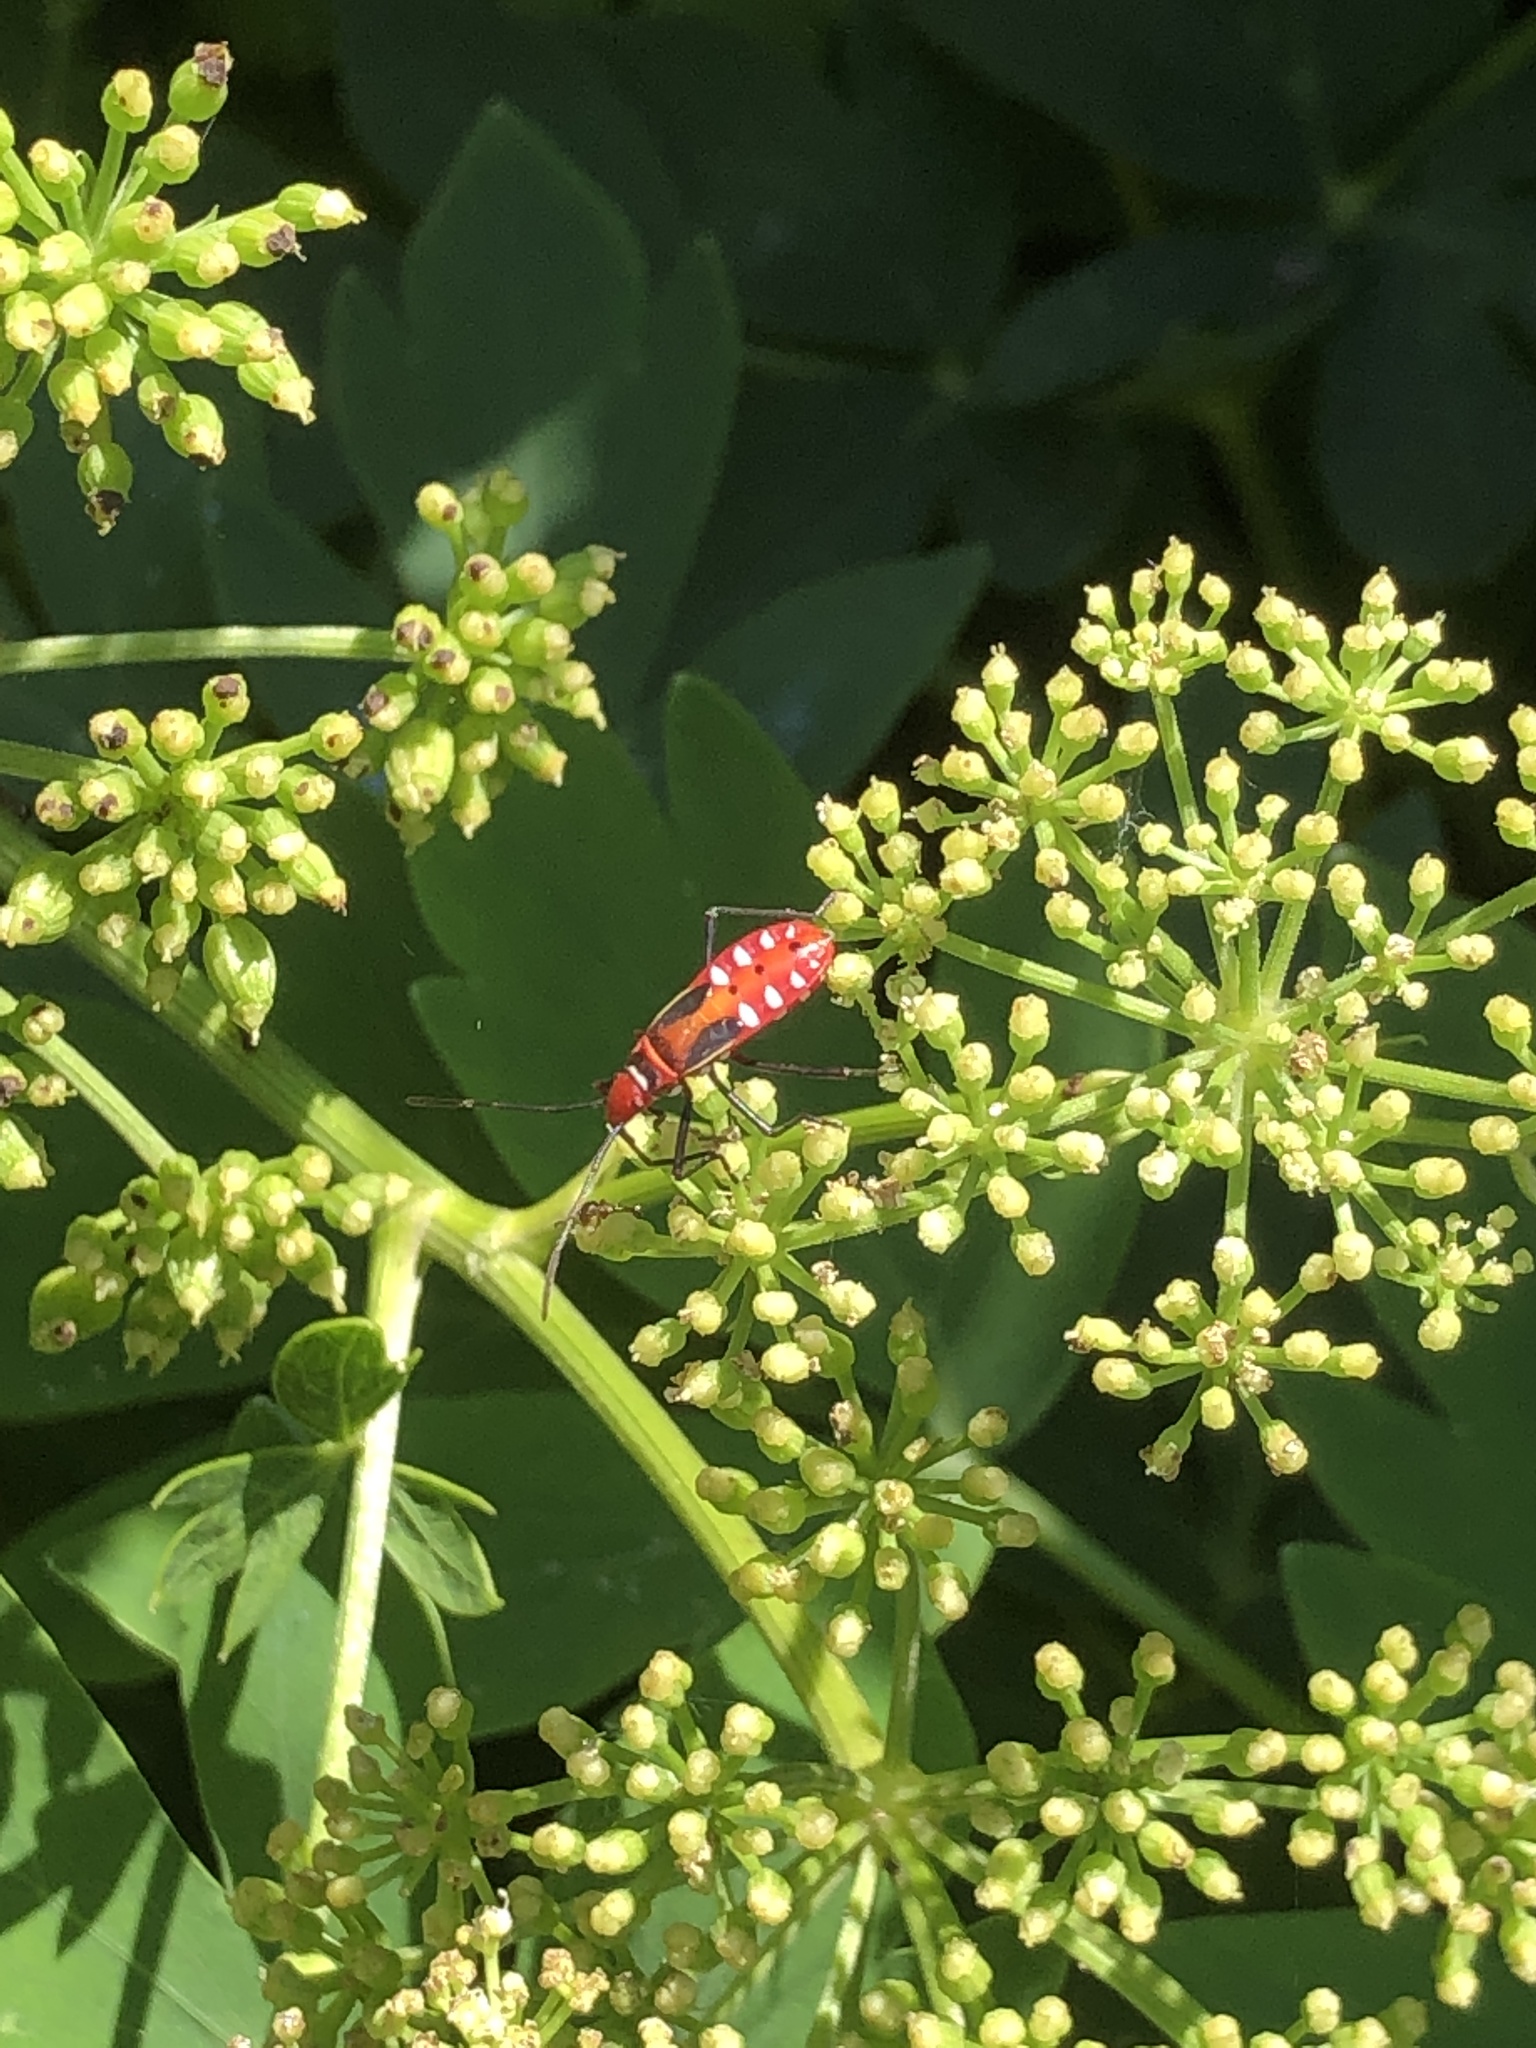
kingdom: Animalia
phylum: Arthropoda
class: Insecta
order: Hemiptera
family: Pyrrhocoridae
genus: Dysdercus
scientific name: Dysdercus cingulatus
